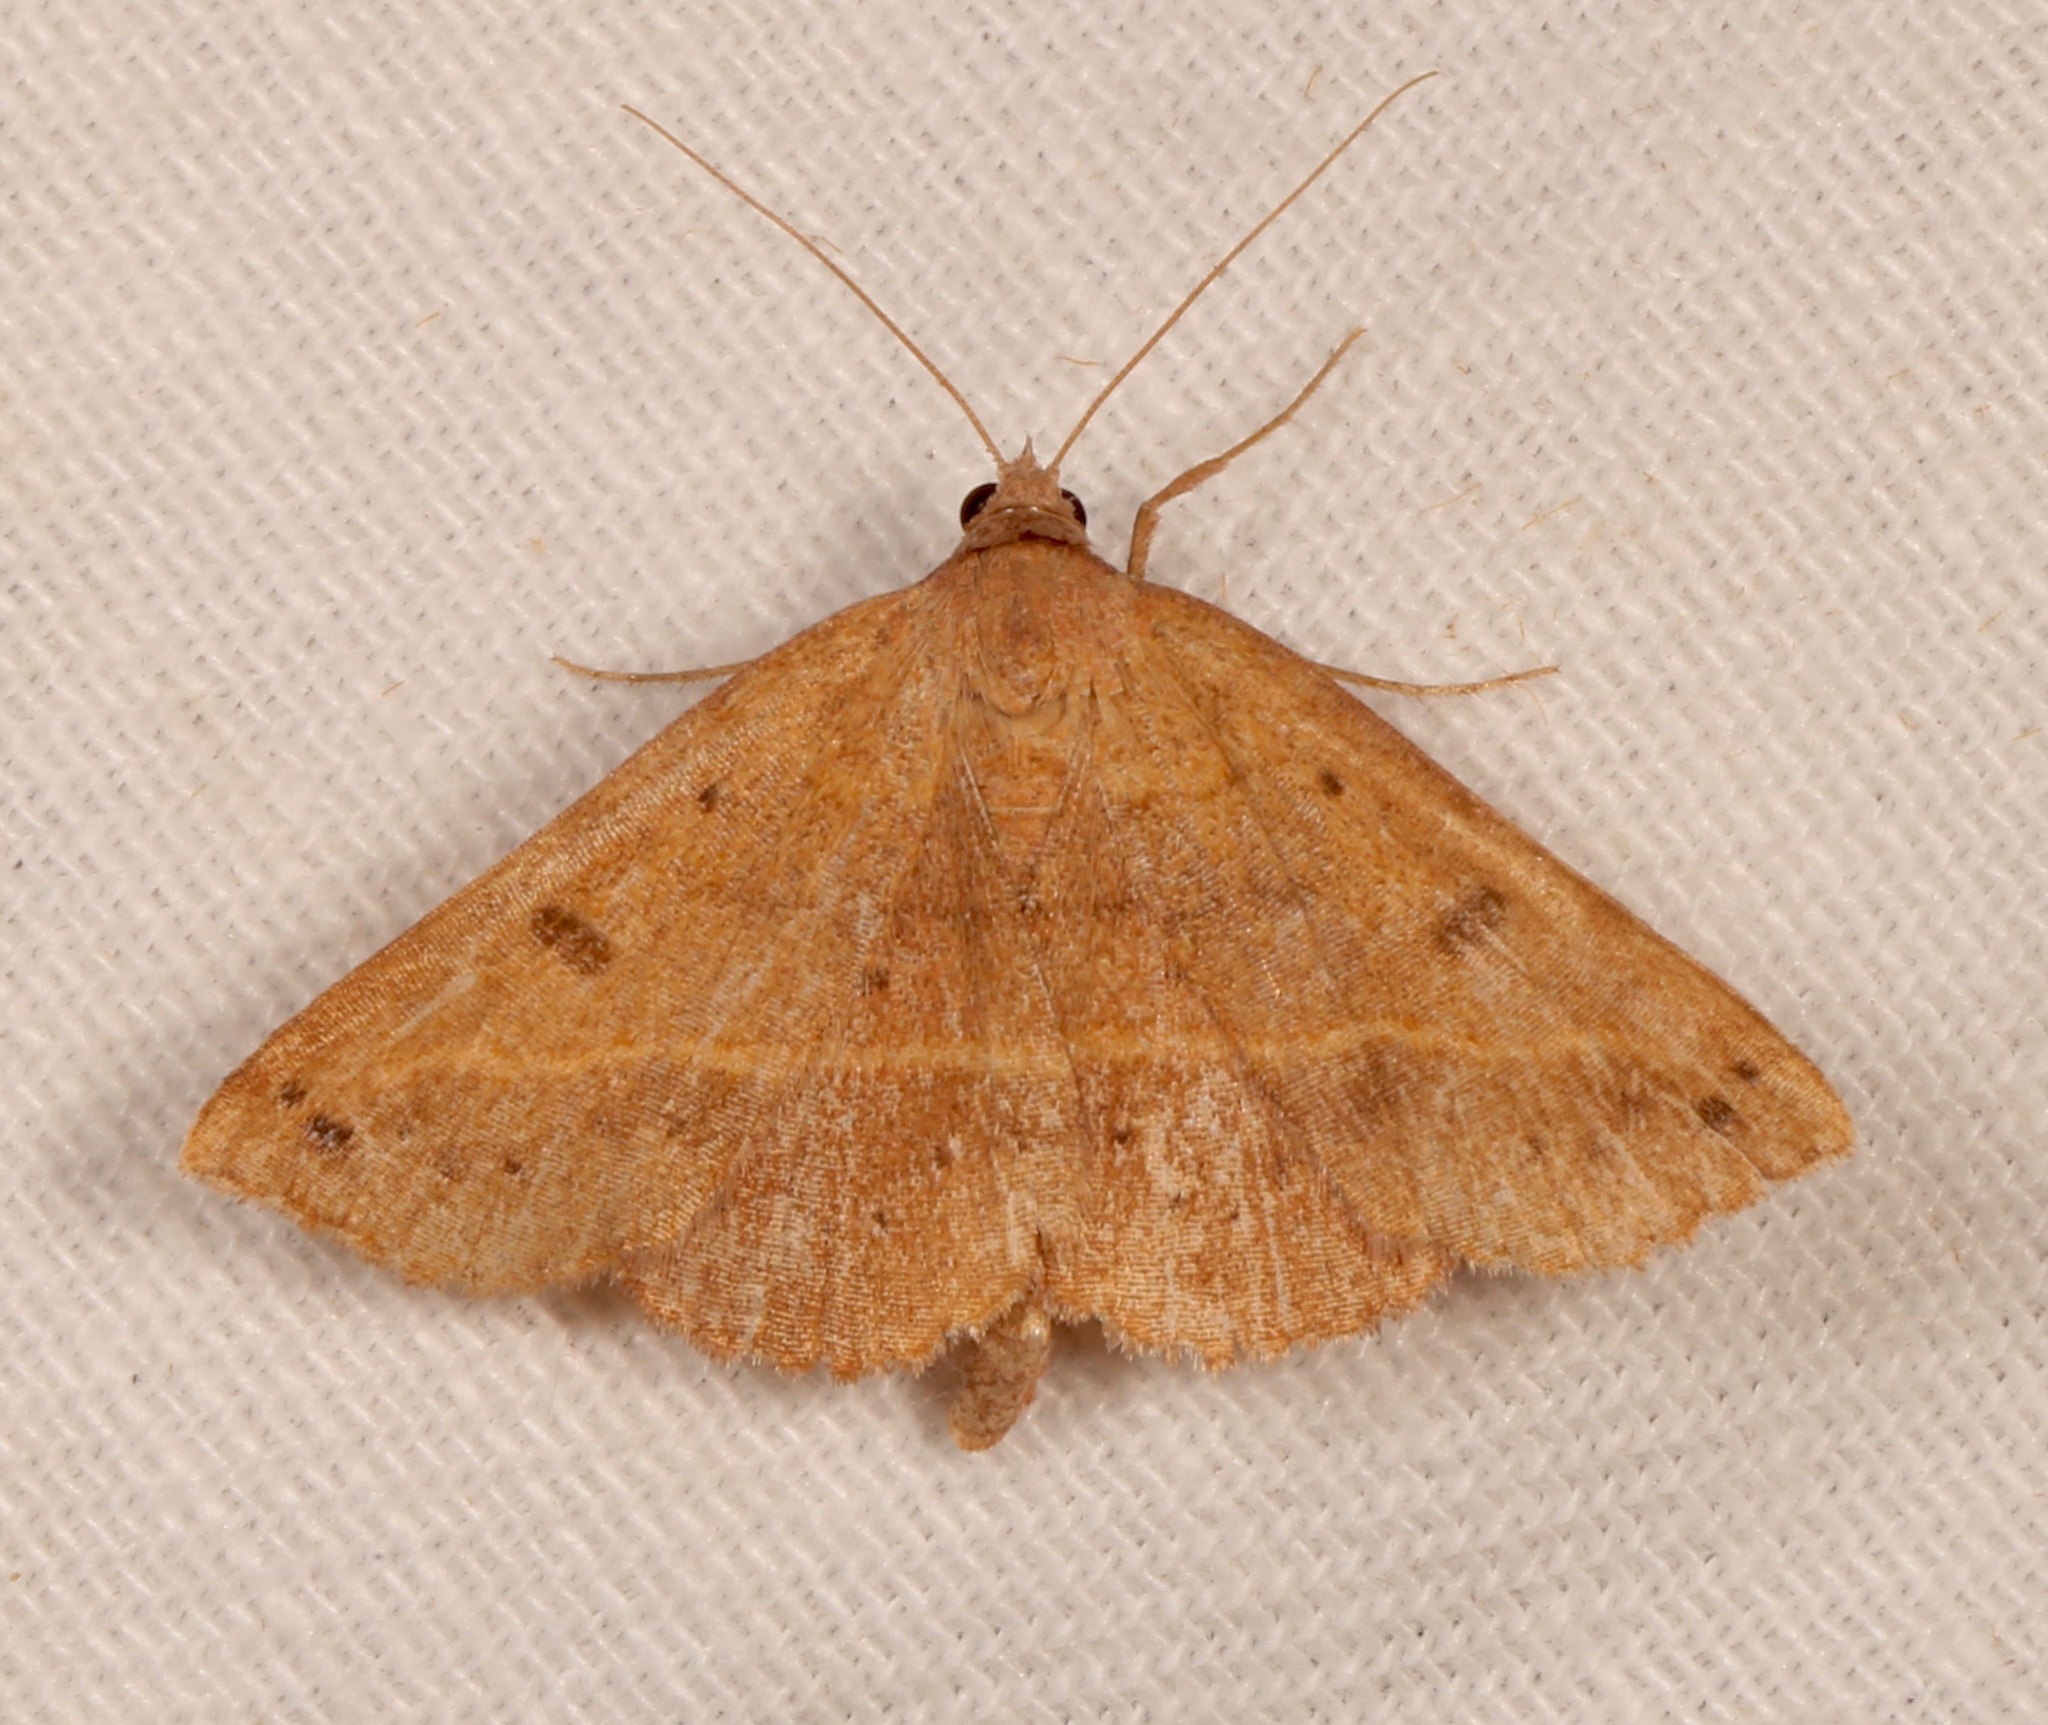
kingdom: Animalia
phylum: Arthropoda
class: Insecta
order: Lepidoptera
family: Erebidae
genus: Hemeroplanis
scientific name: Hemeroplanis scopulepes
